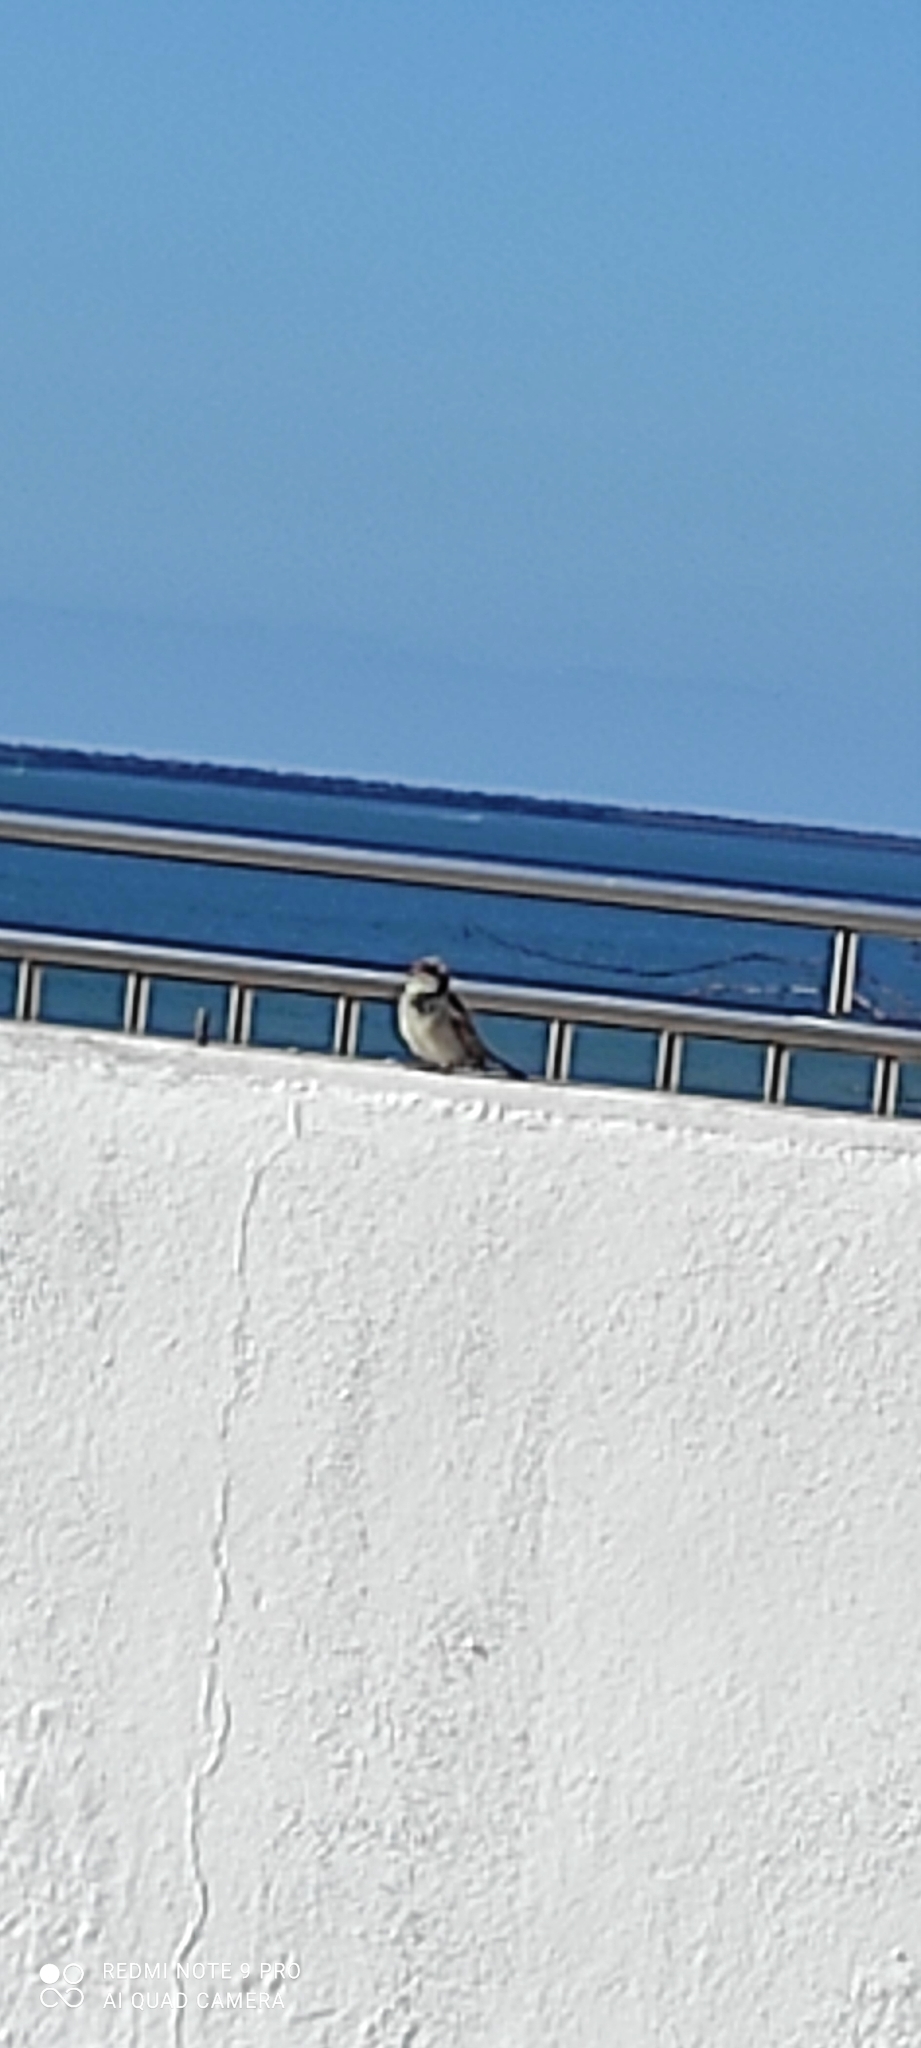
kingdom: Animalia
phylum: Chordata
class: Aves
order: Passeriformes
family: Passeridae
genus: Passer
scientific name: Passer domesticus
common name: House sparrow
